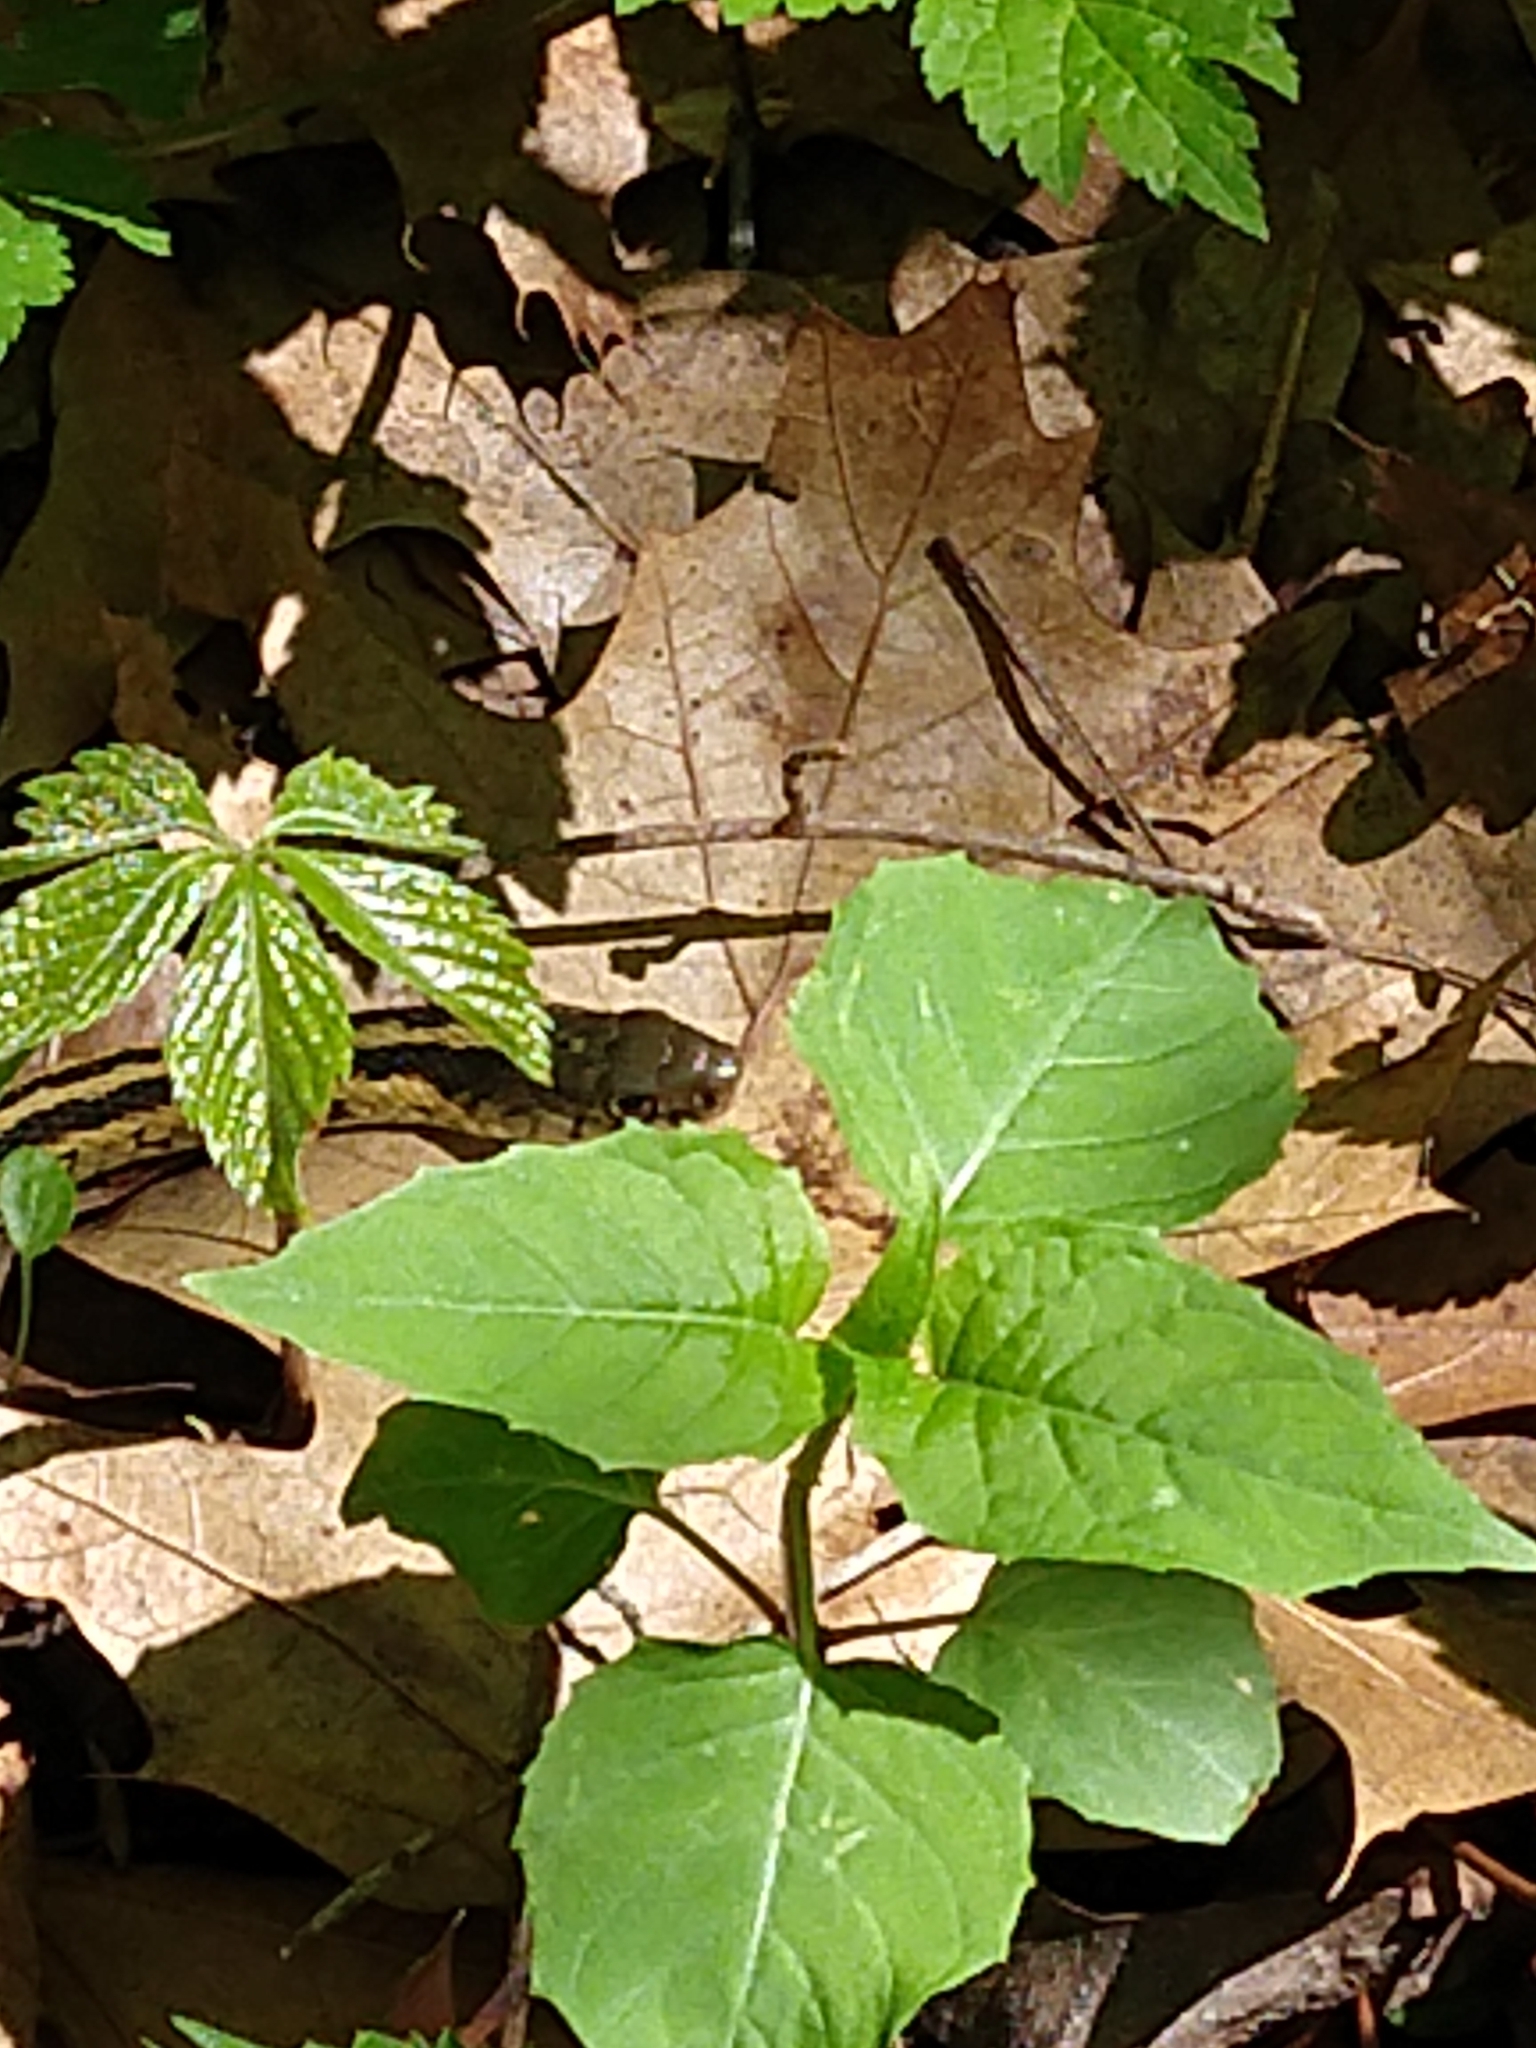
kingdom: Animalia
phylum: Chordata
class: Squamata
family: Colubridae
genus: Thamnophis
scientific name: Thamnophis
